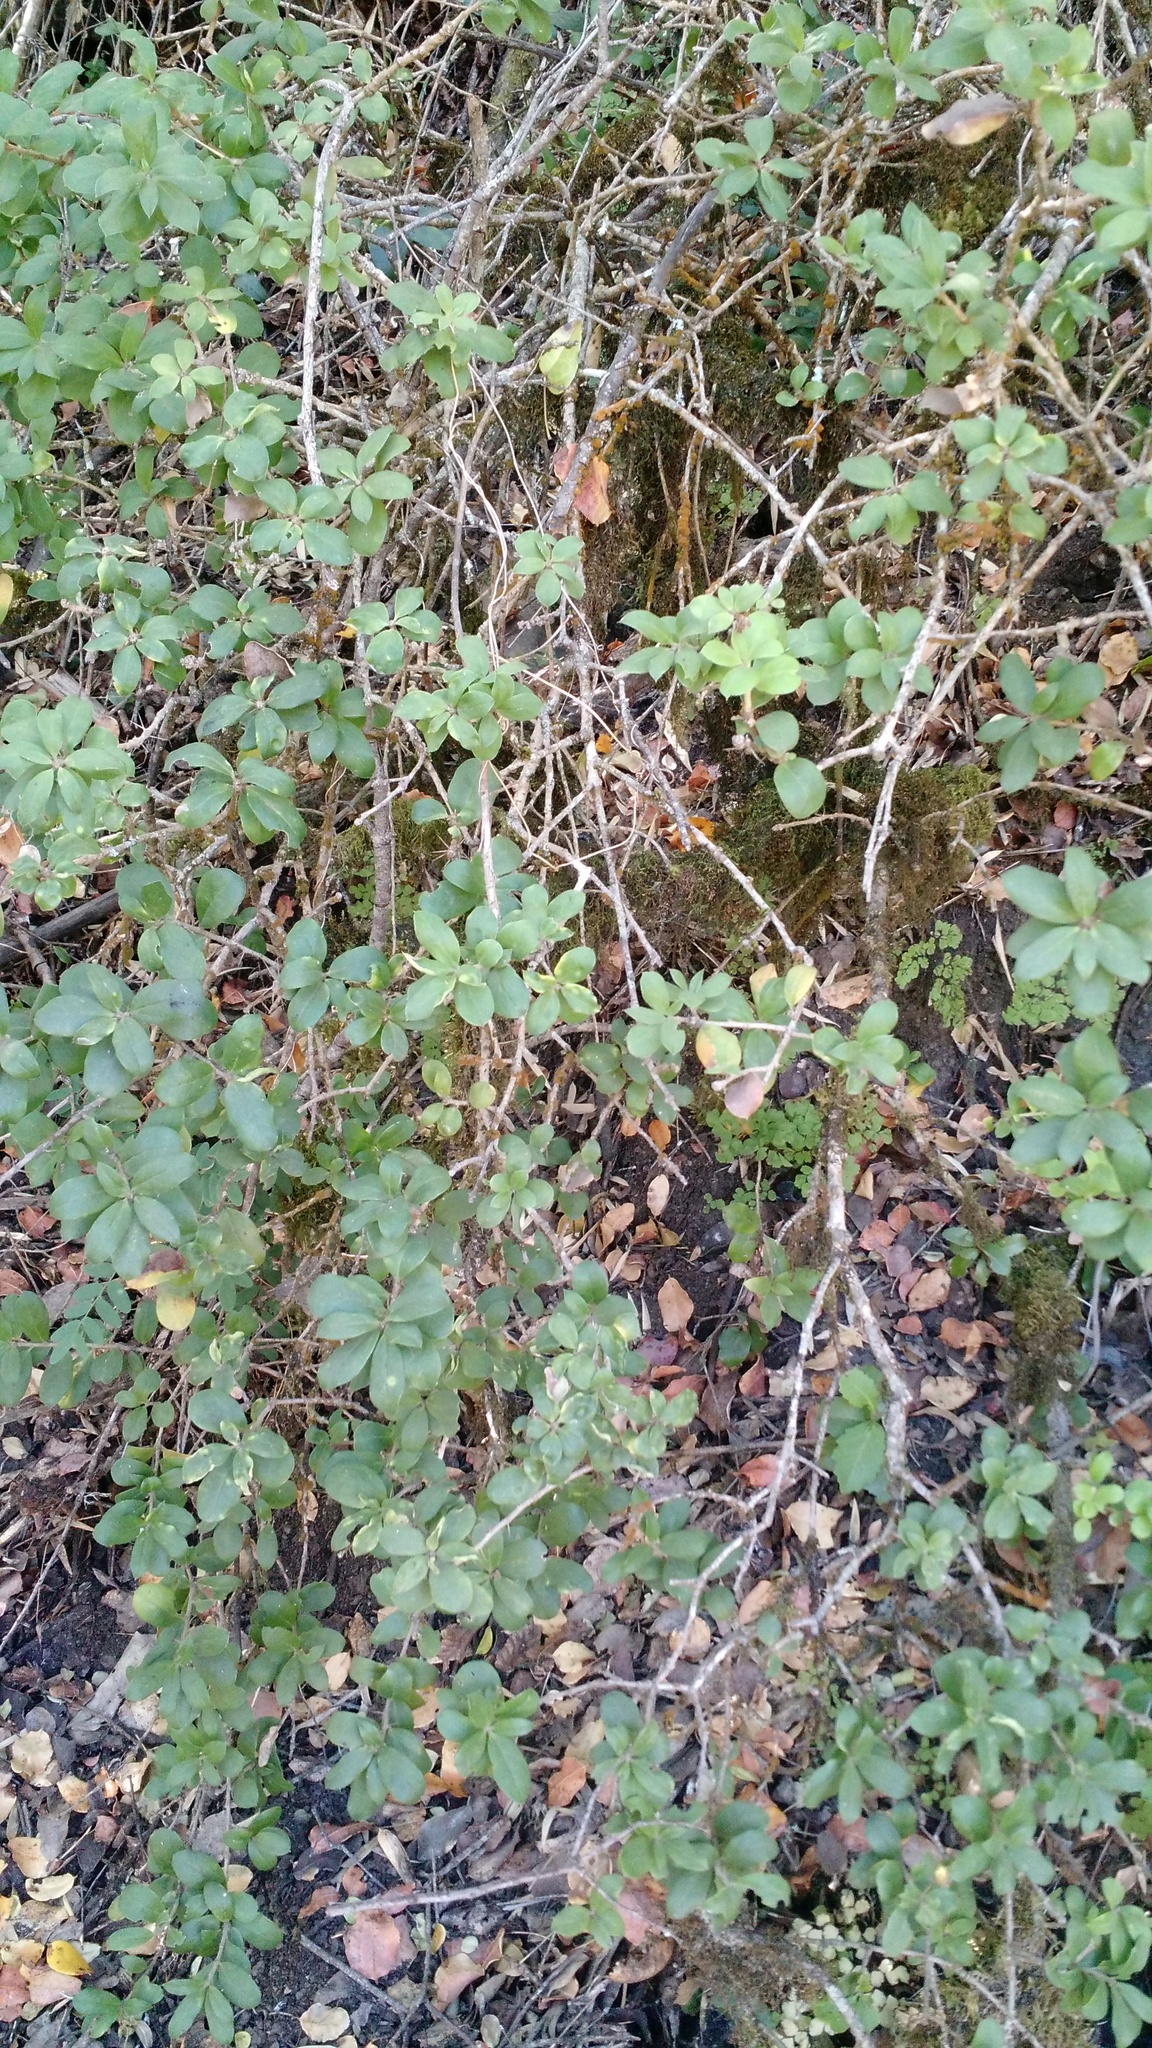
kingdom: Plantae
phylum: Tracheophyta
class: Magnoliopsida
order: Asterales
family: Asteraceae
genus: Archidasyphyllum
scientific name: Archidasyphyllum diacanthoides
